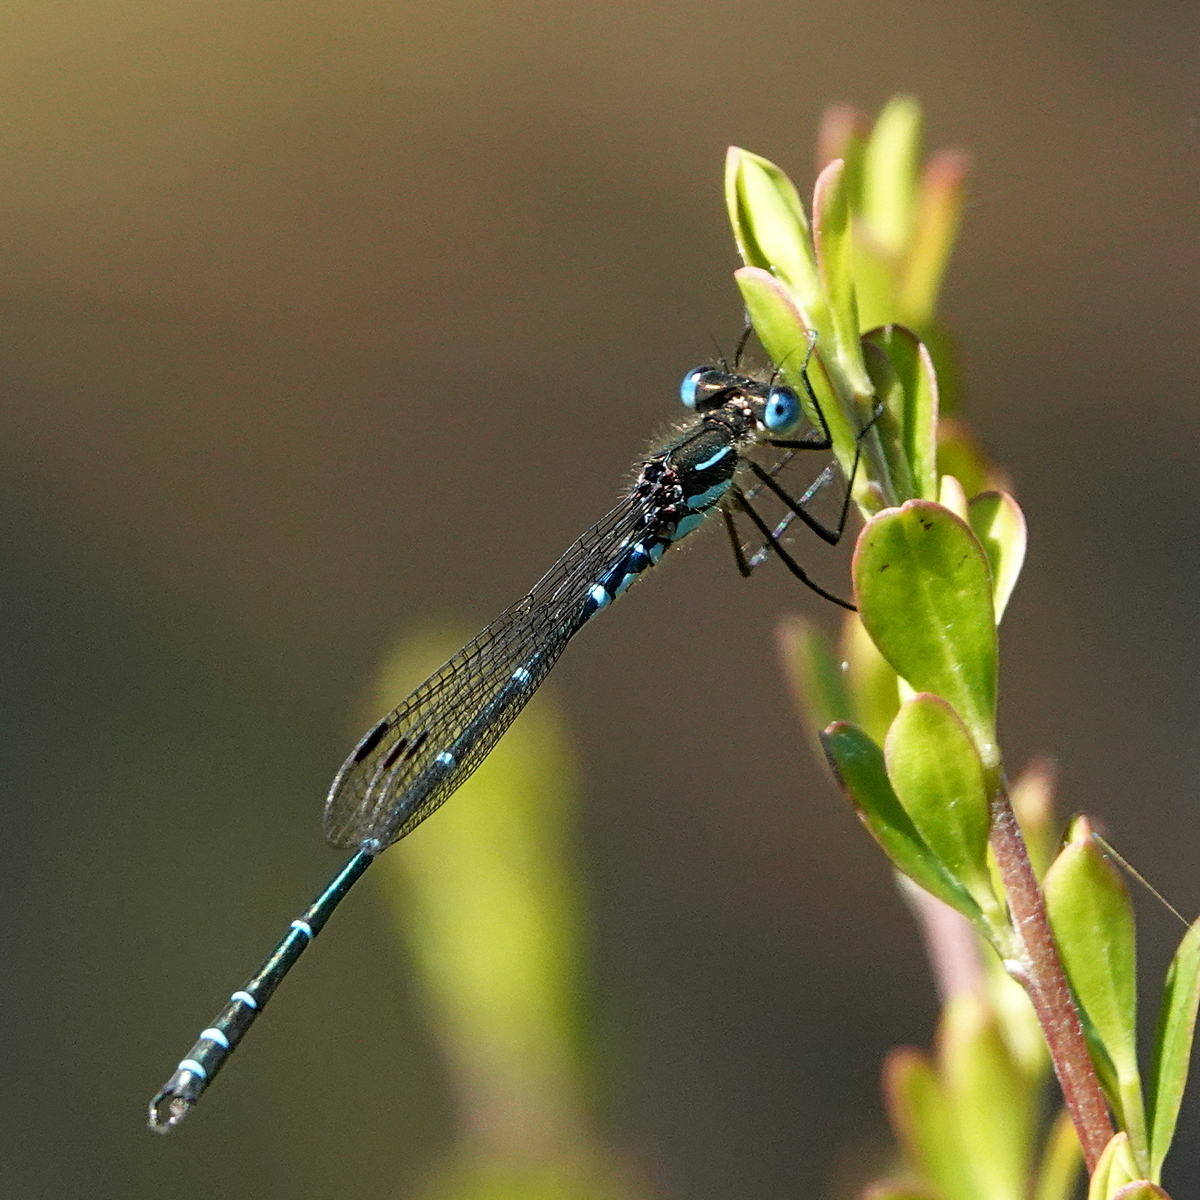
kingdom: Animalia
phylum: Arthropoda
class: Insecta
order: Odonata
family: Lestidae
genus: Austrolestes
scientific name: Austrolestes psyche
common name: Cup ringtail
